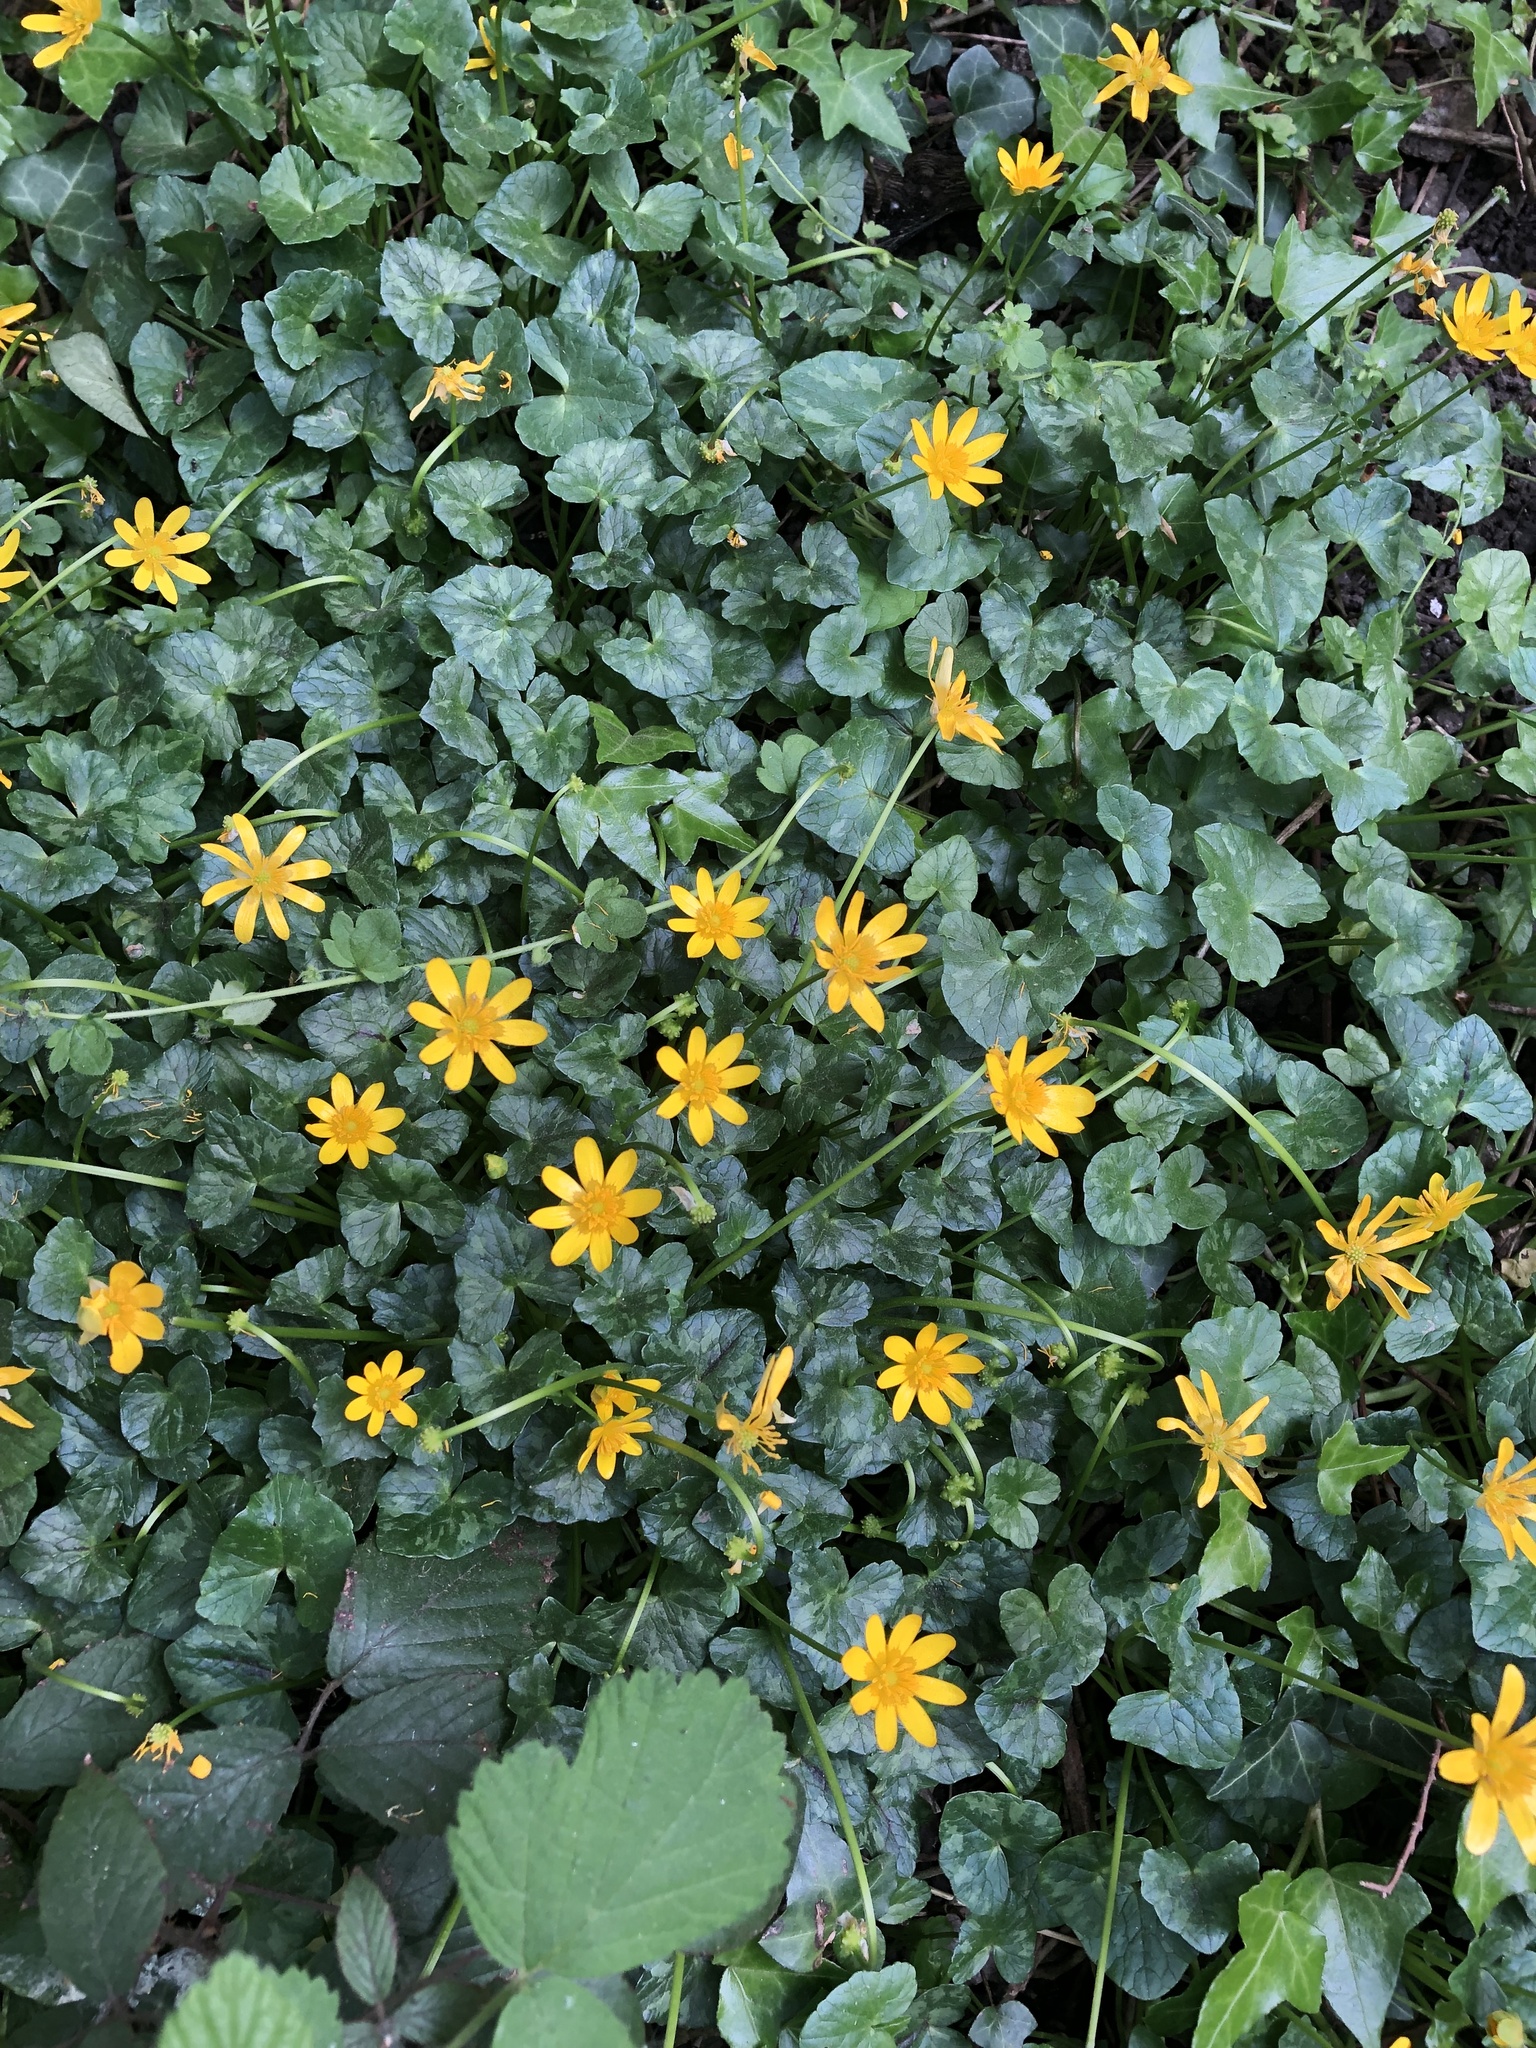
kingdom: Plantae
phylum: Tracheophyta
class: Magnoliopsida
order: Ranunculales
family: Ranunculaceae
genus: Ficaria
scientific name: Ficaria verna
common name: Lesser celandine
